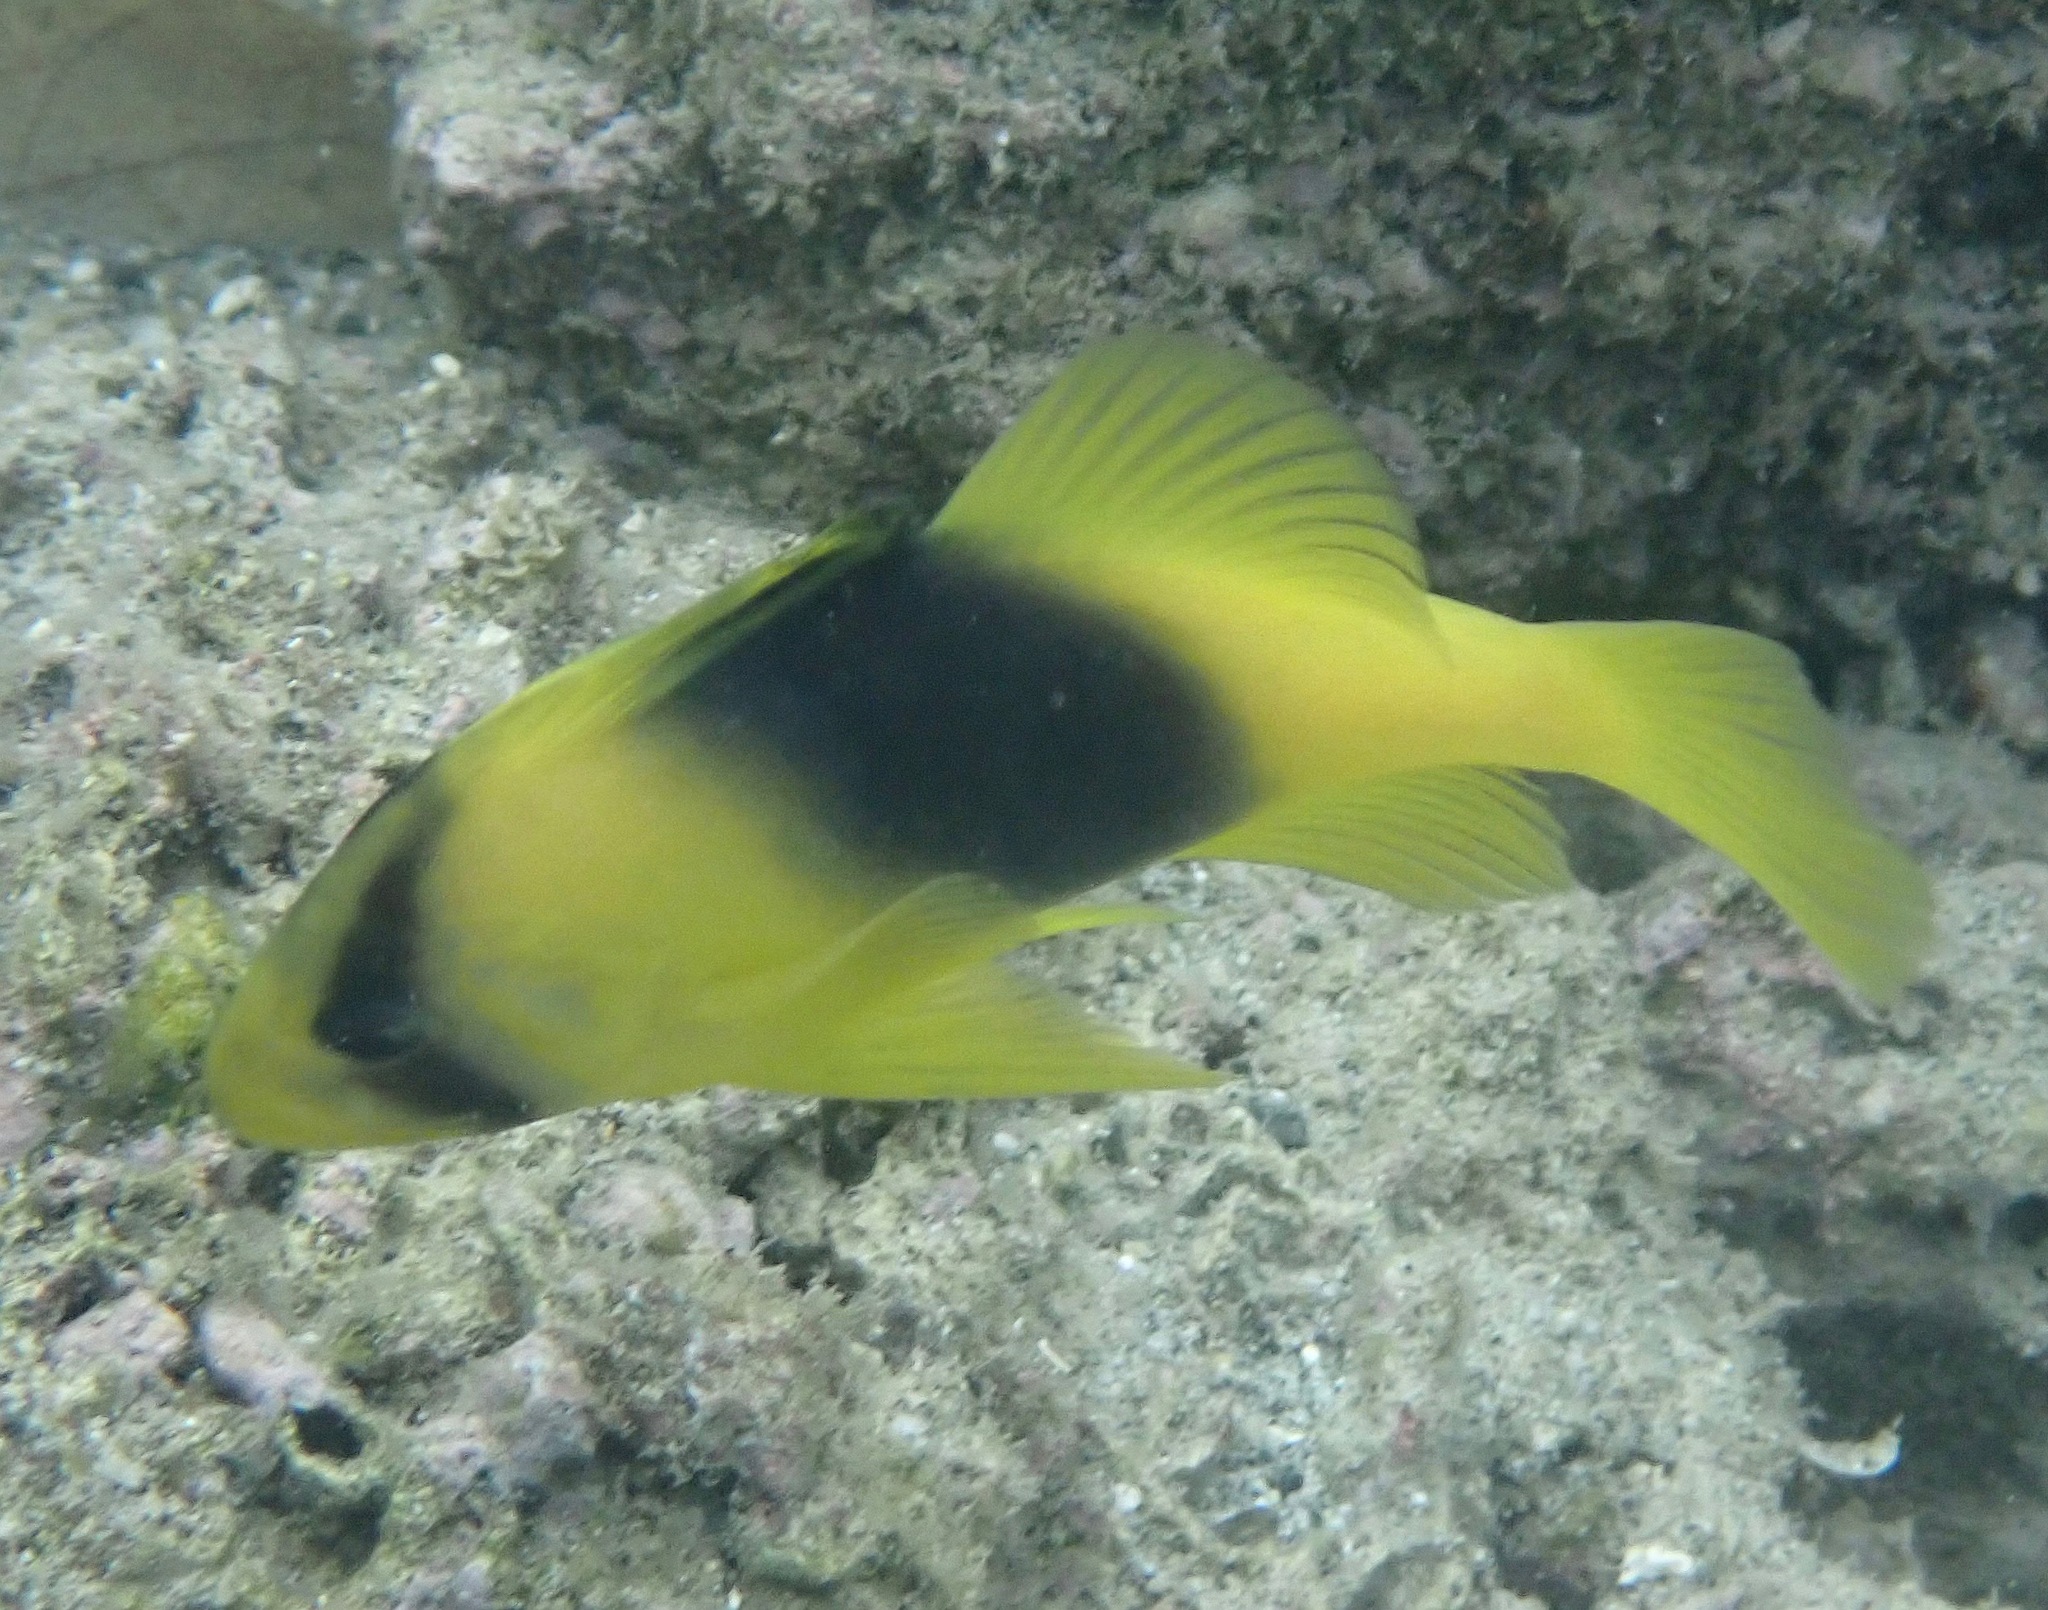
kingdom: Animalia
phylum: Chordata
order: Perciformes
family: Serranidae
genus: Diploprion
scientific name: Diploprion bifasciatum
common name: Barred soapfish
